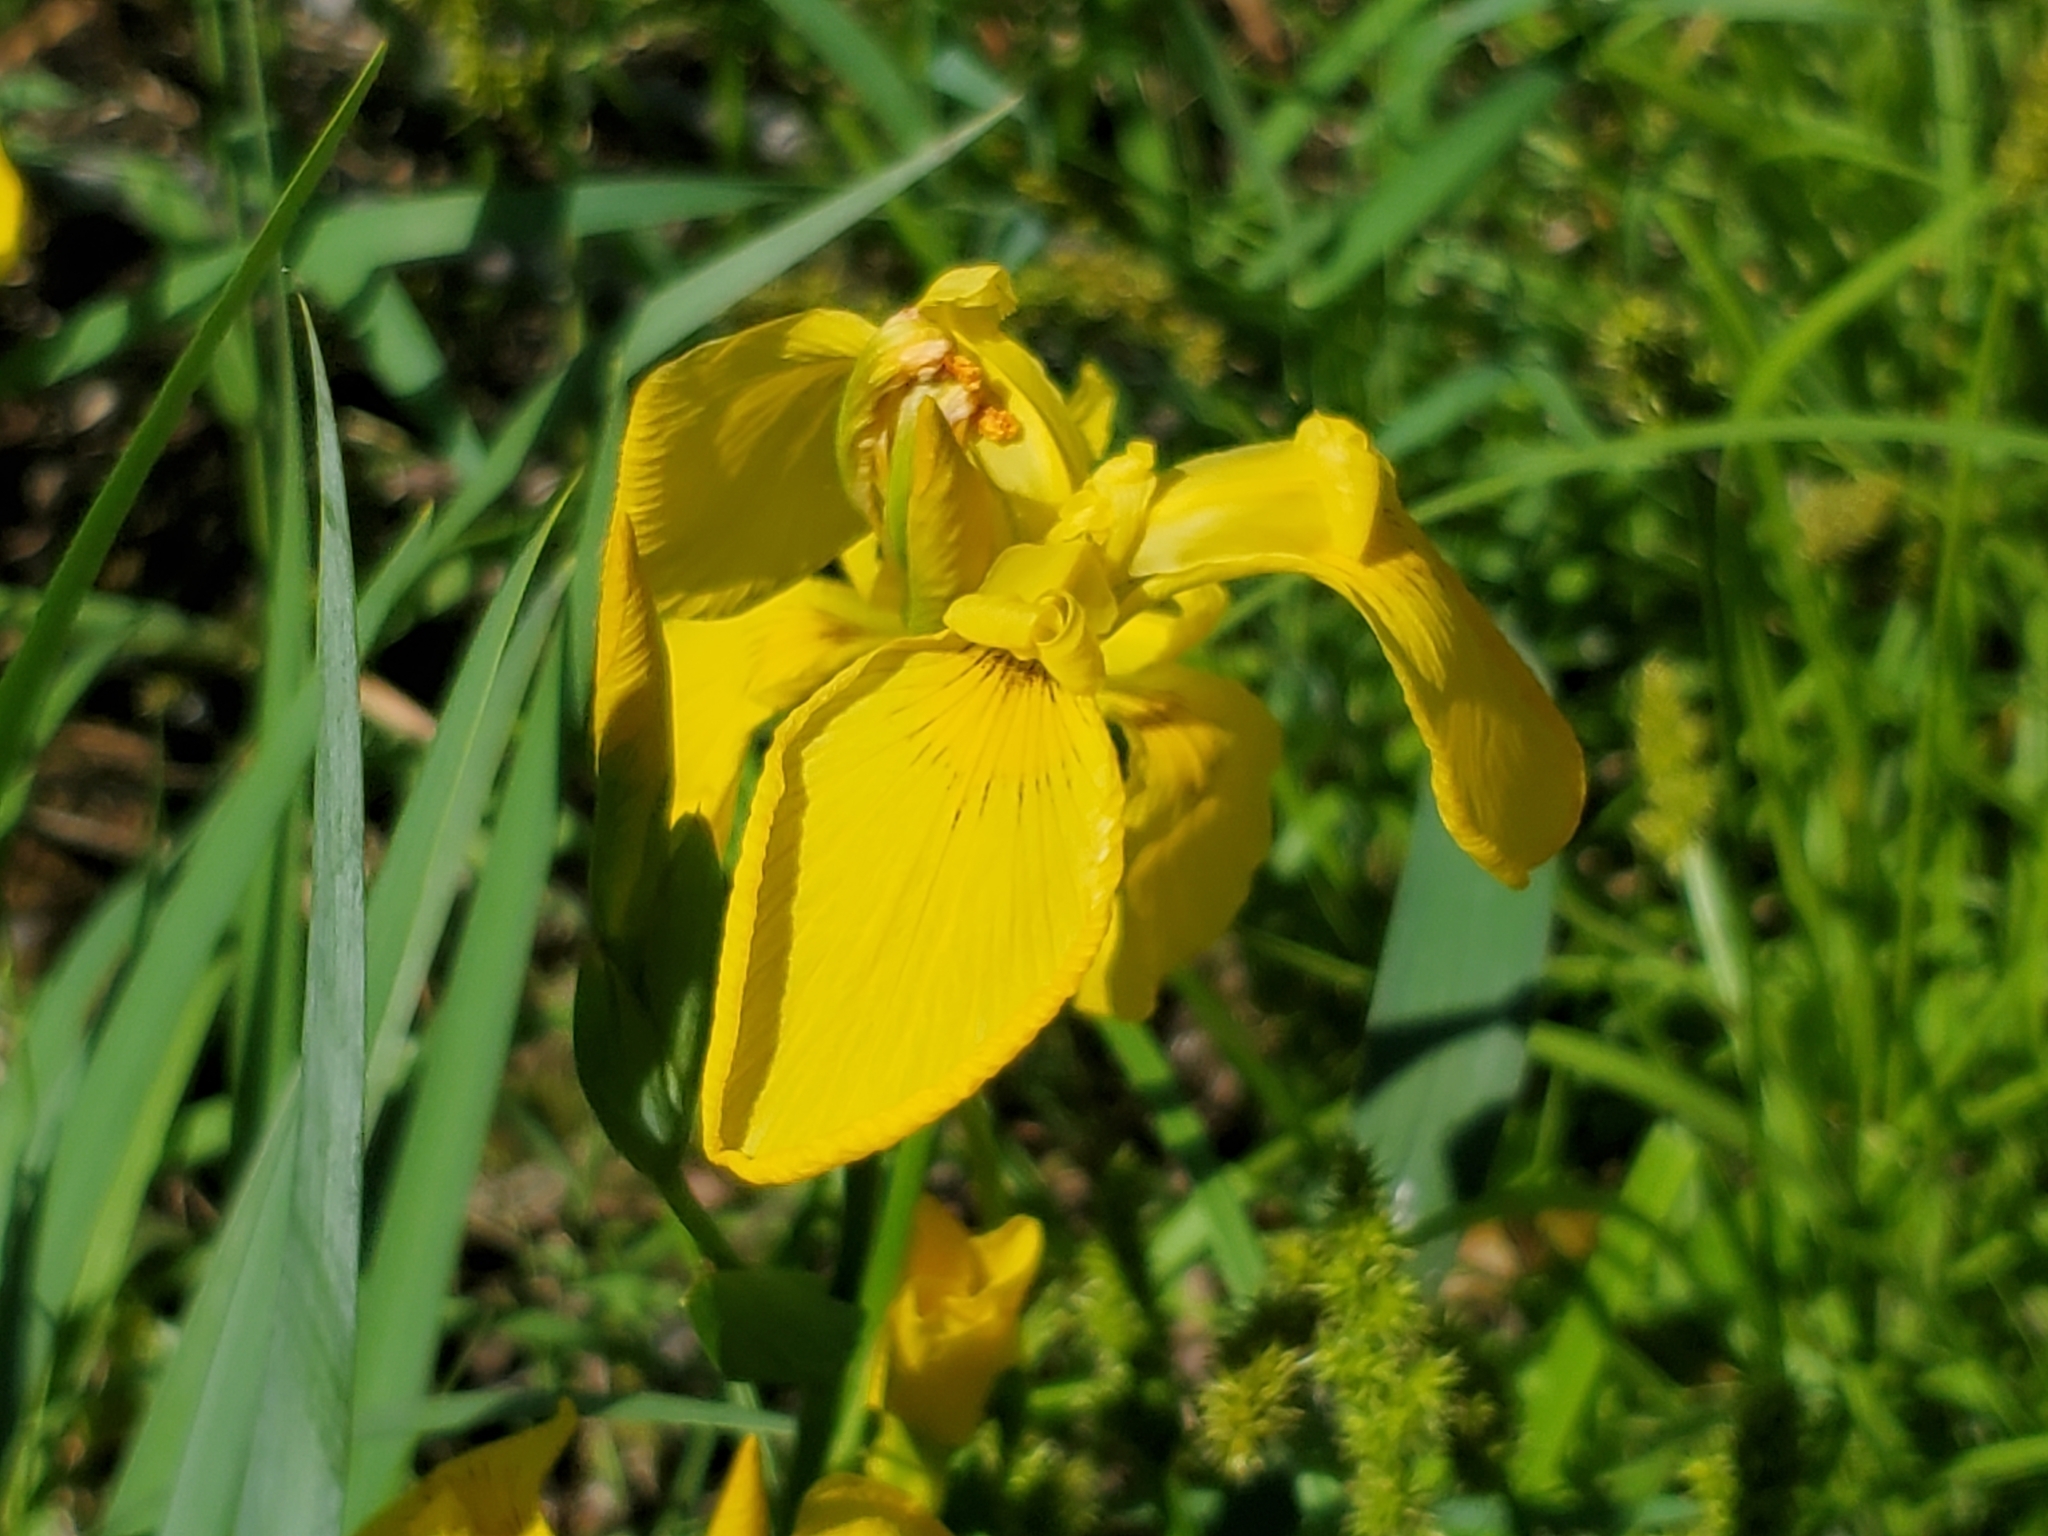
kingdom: Plantae
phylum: Tracheophyta
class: Liliopsida
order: Asparagales
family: Iridaceae
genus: Iris
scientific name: Iris pseudacorus
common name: Yellow flag
